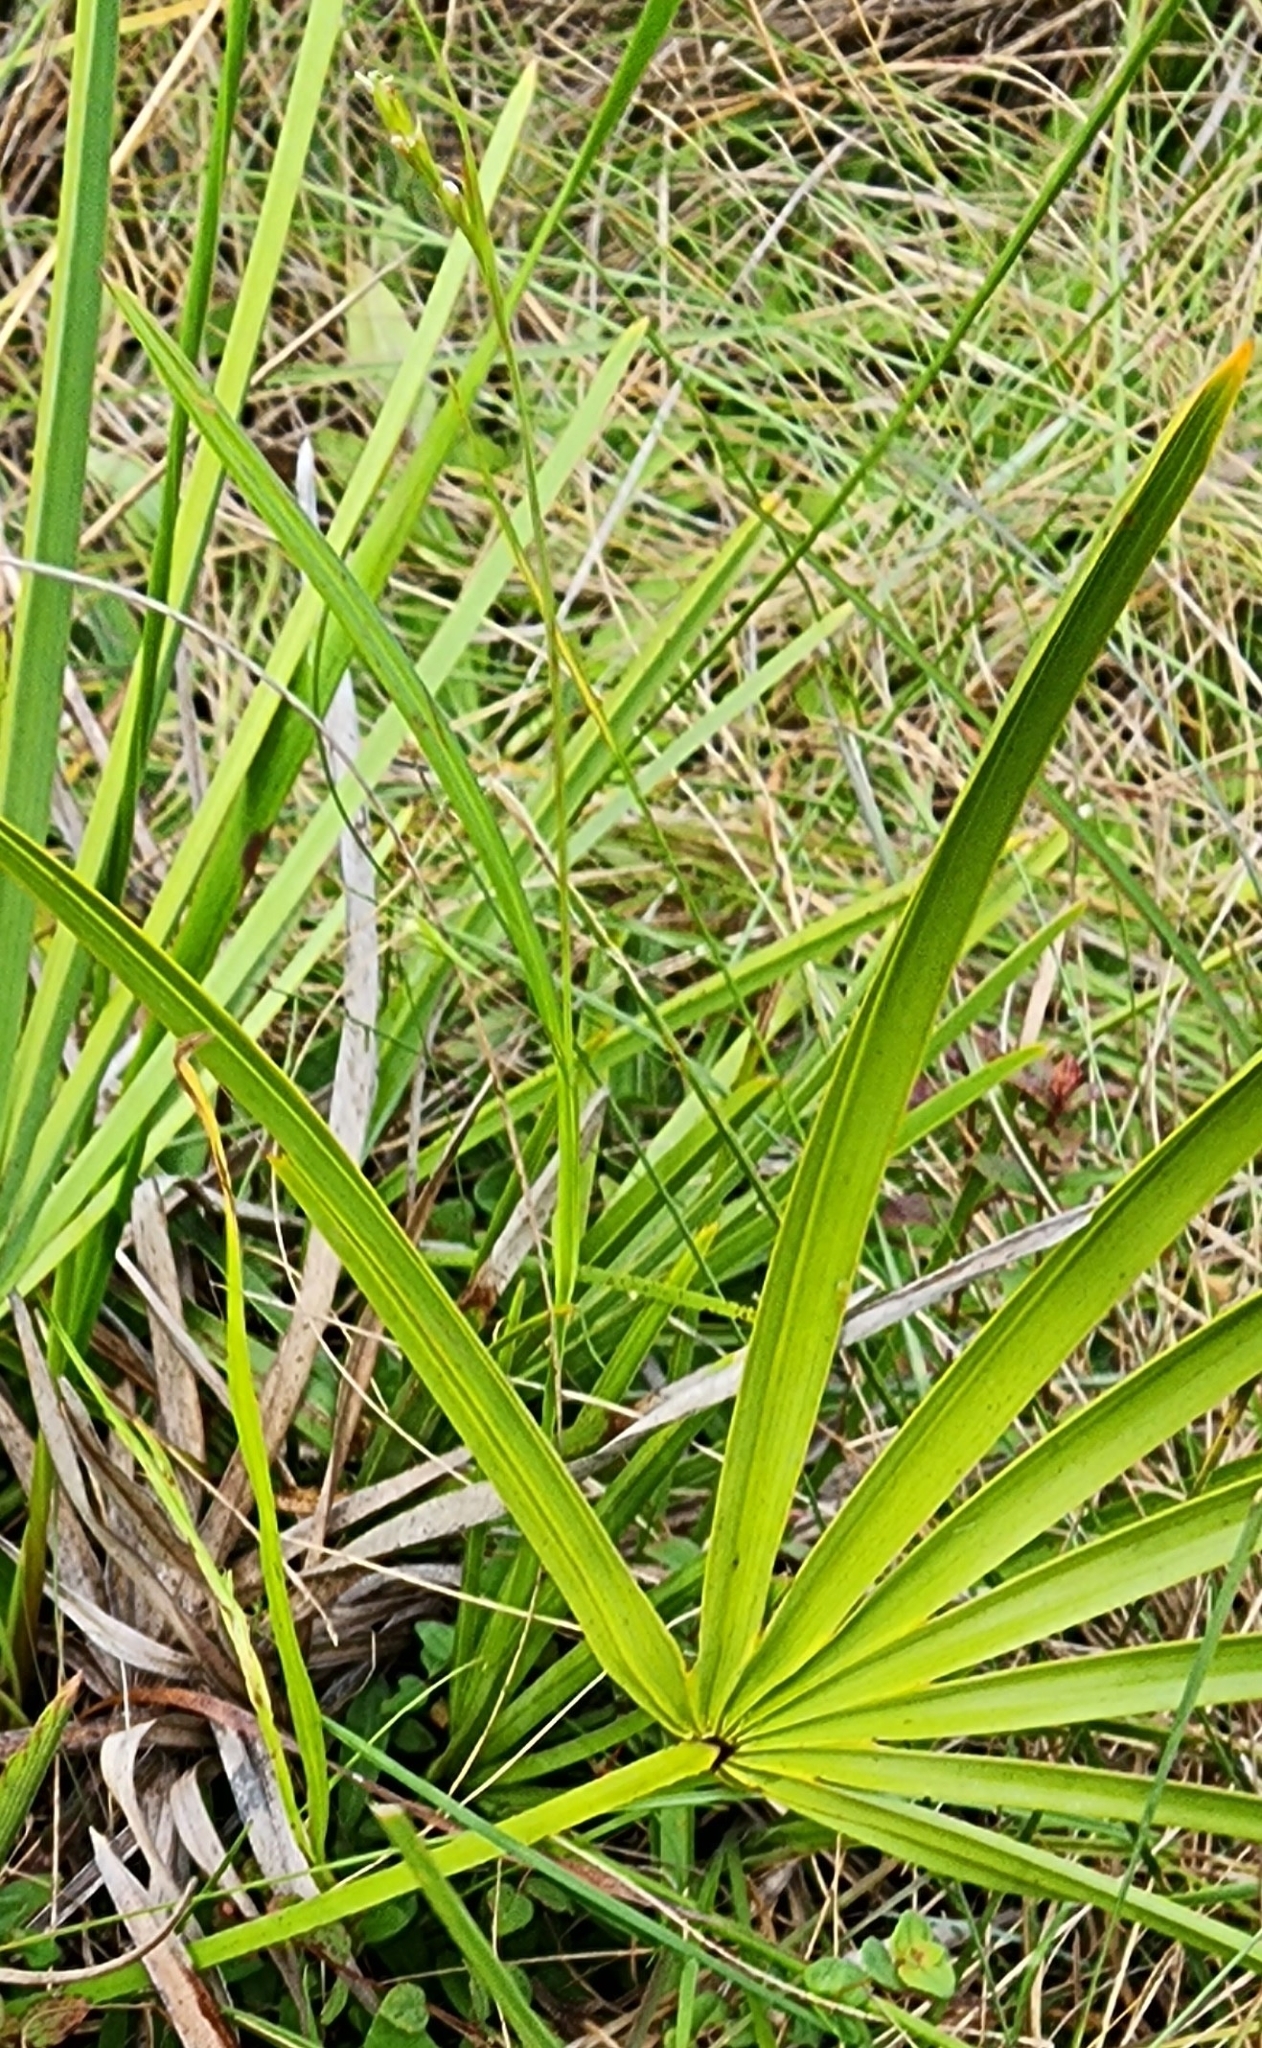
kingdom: Plantae
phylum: Tracheophyta
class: Liliopsida
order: Arecales
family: Arecaceae
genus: Serenoa
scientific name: Serenoa repens
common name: Saw-palmetto
